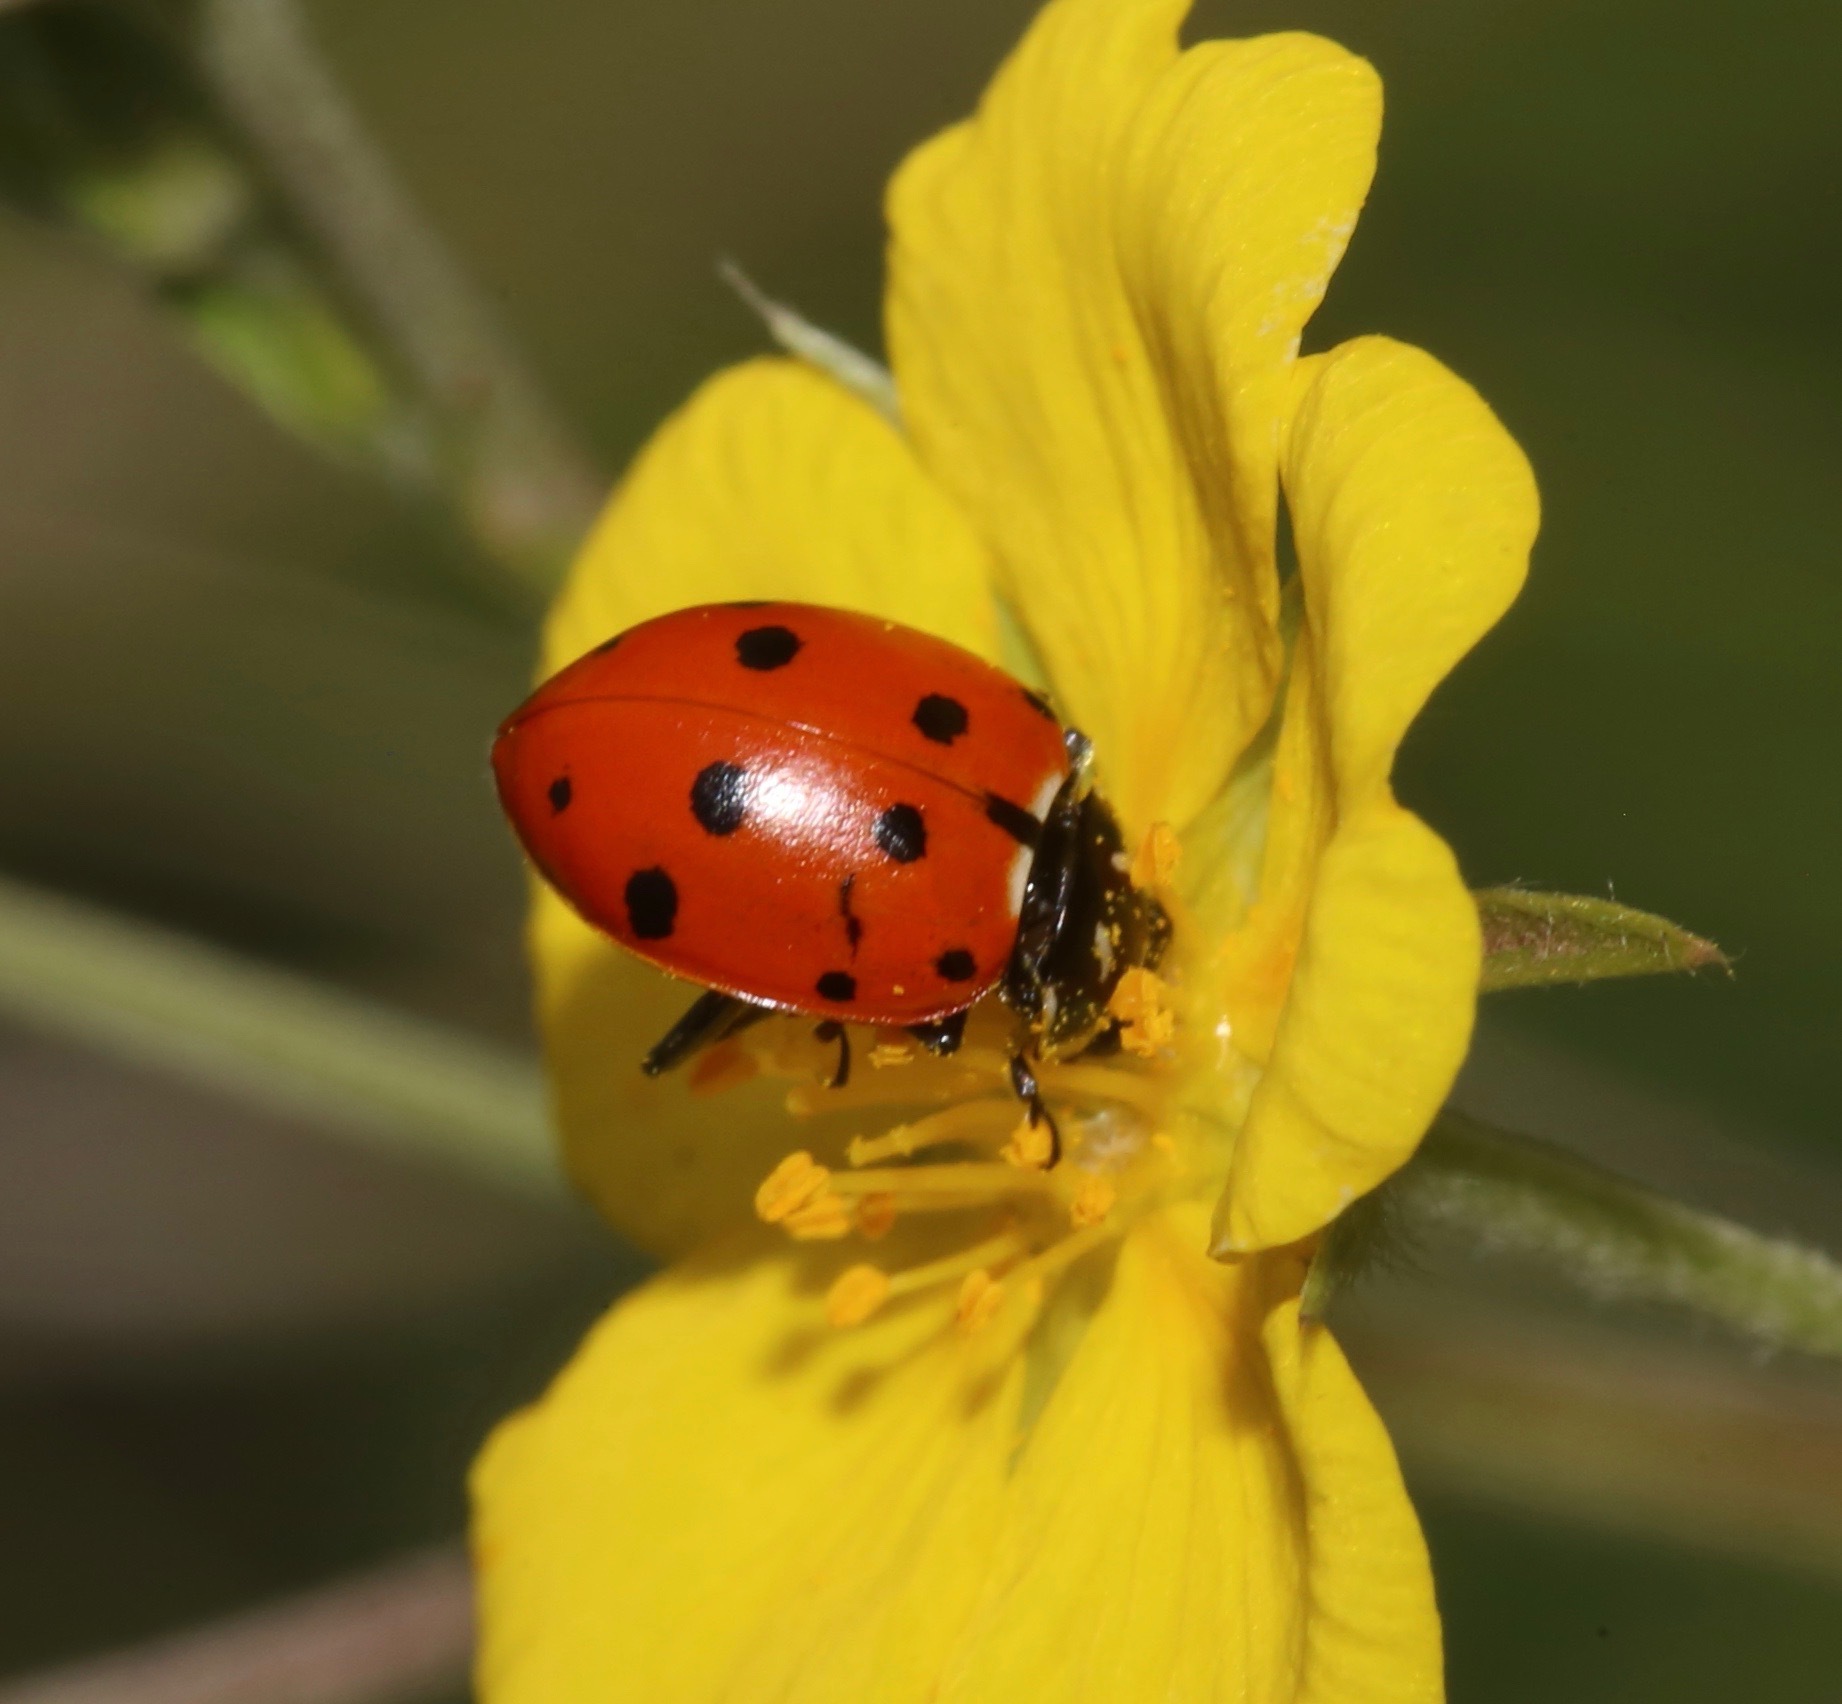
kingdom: Animalia
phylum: Arthropoda
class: Insecta
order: Coleoptera
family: Coccinellidae
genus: Hippodamia
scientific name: Hippodamia convergens
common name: Convergent lady beetle
